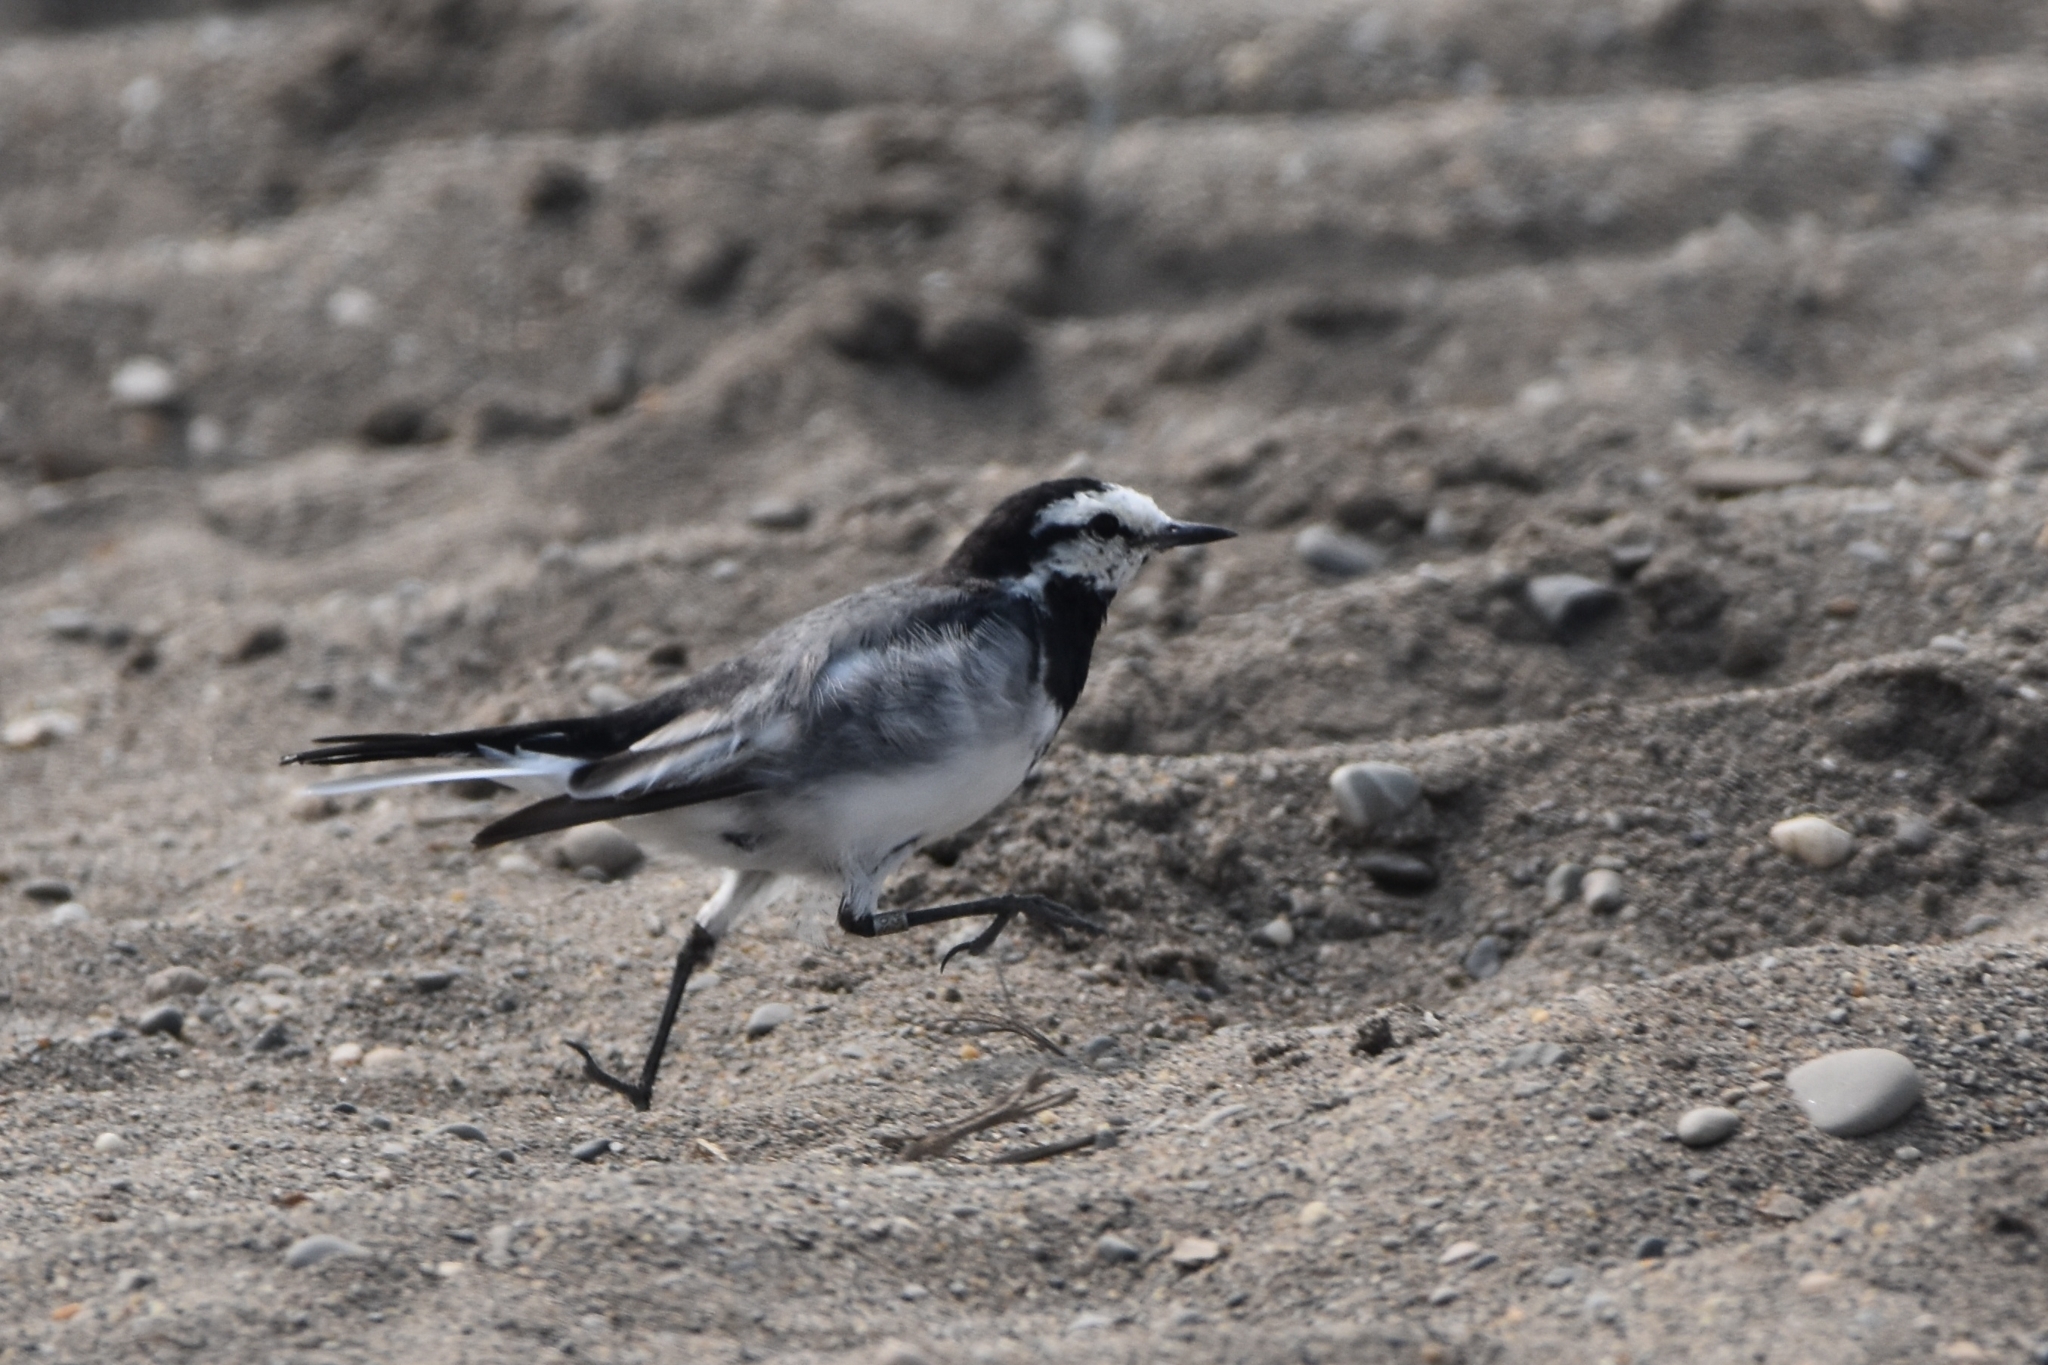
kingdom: Animalia
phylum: Chordata
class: Aves
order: Passeriformes
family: Motacillidae
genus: Motacilla
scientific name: Motacilla alba
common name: White wagtail
